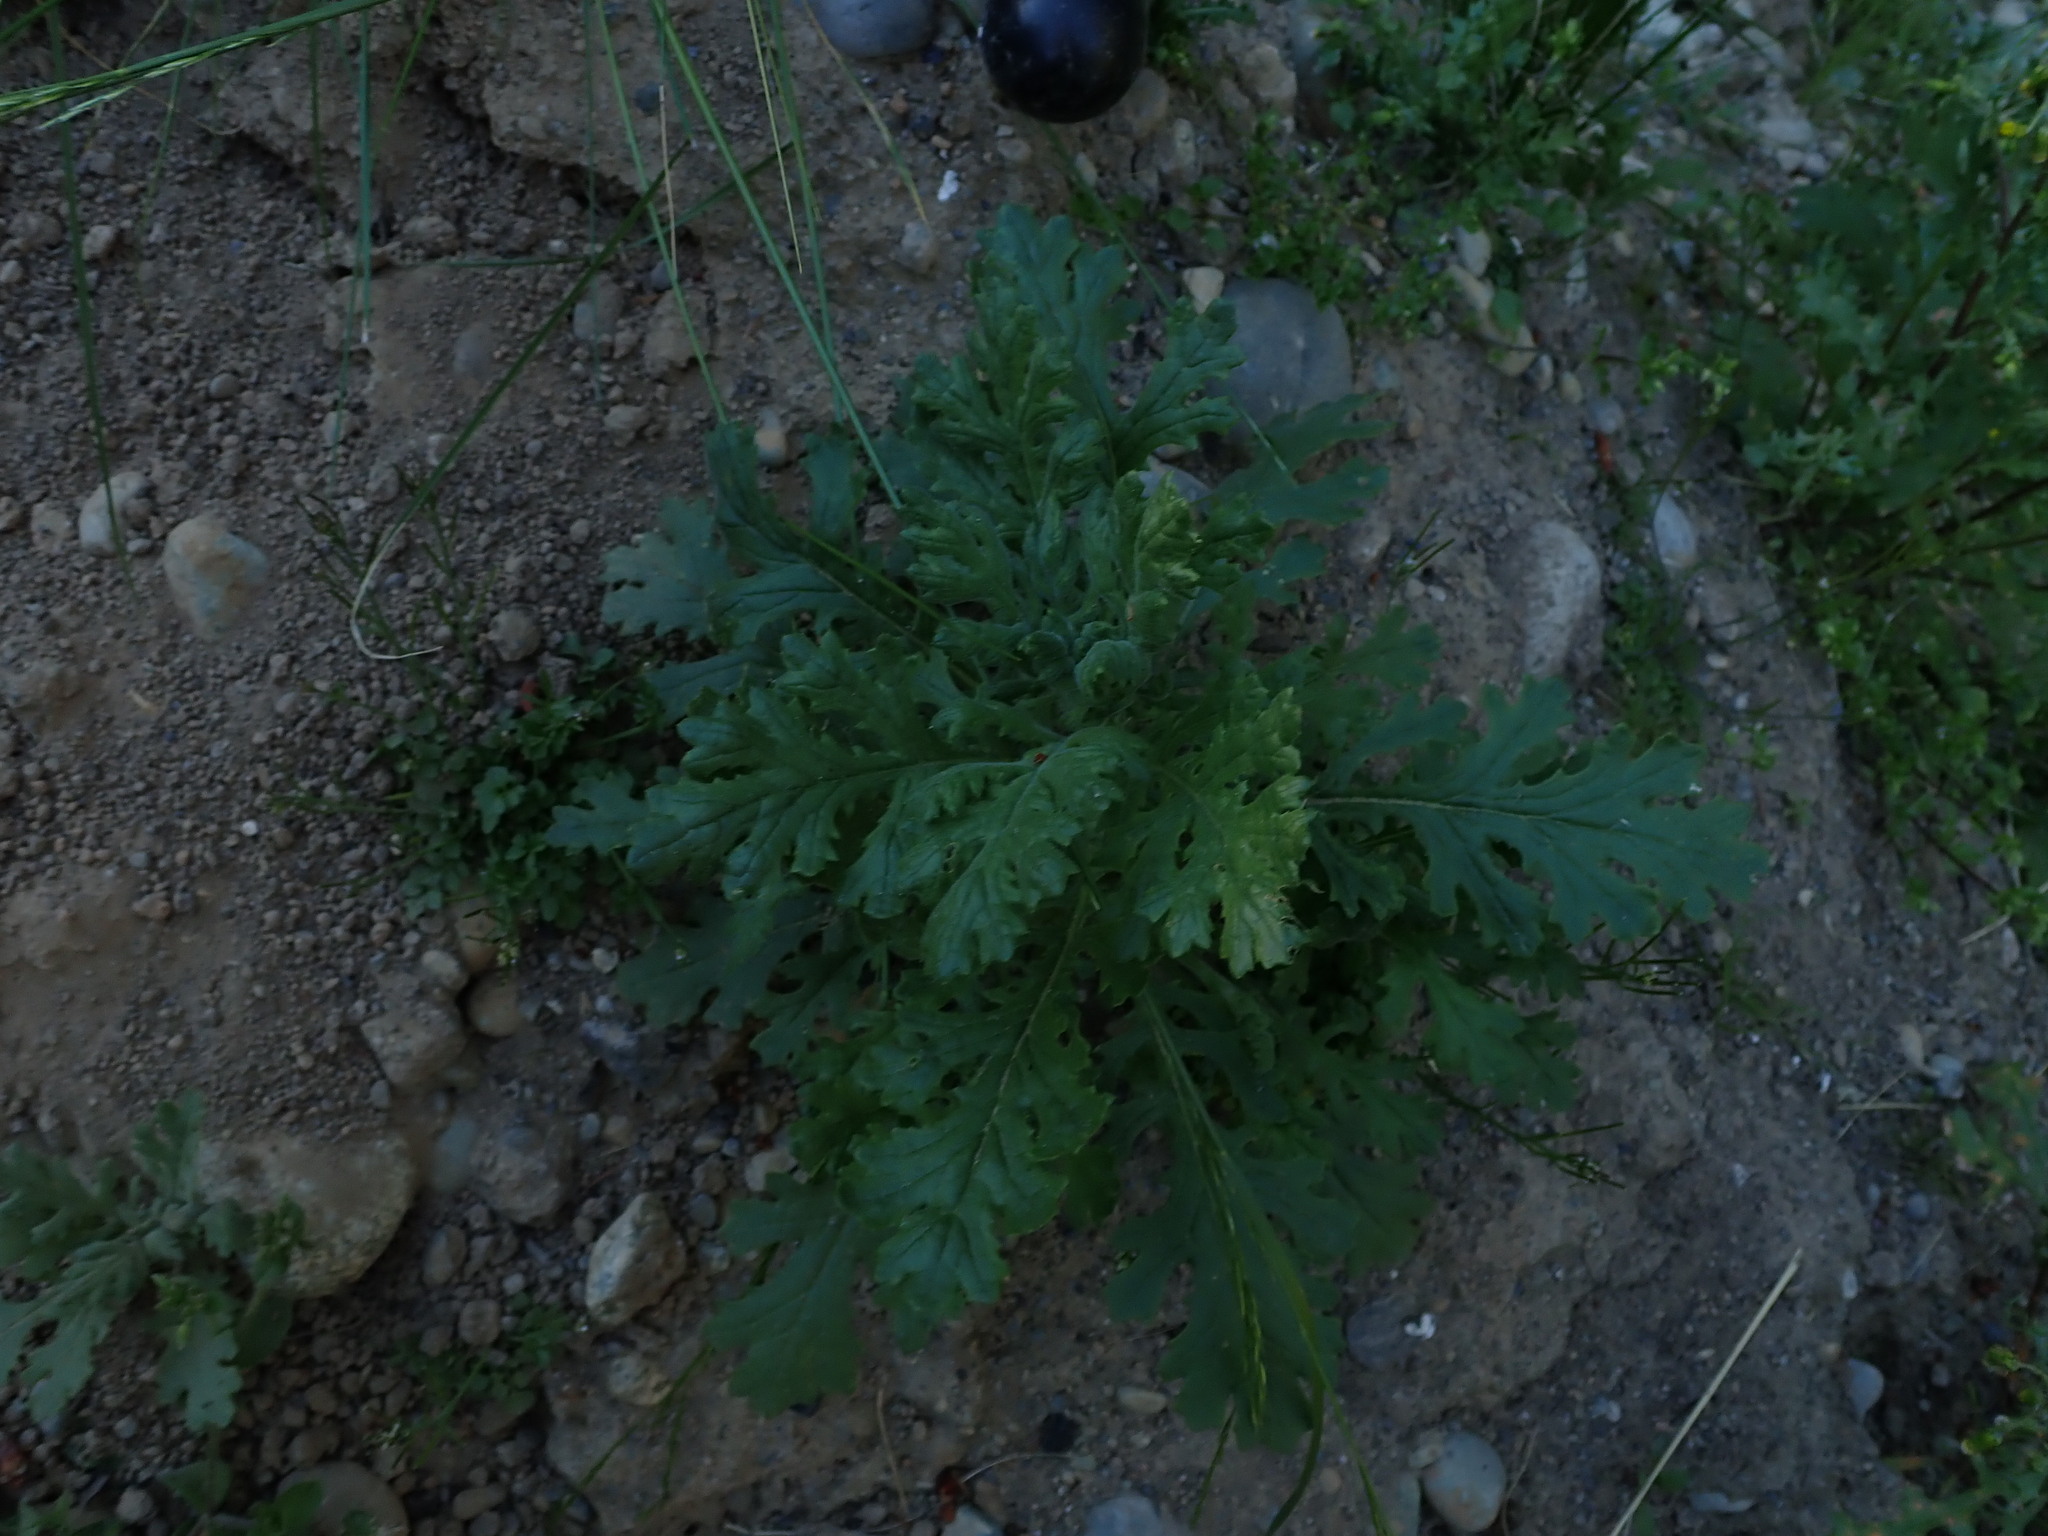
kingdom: Plantae
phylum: Tracheophyta
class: Magnoliopsida
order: Asterales
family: Asteraceae
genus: Jacobaea
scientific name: Jacobaea vulgaris
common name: Stinking willie
